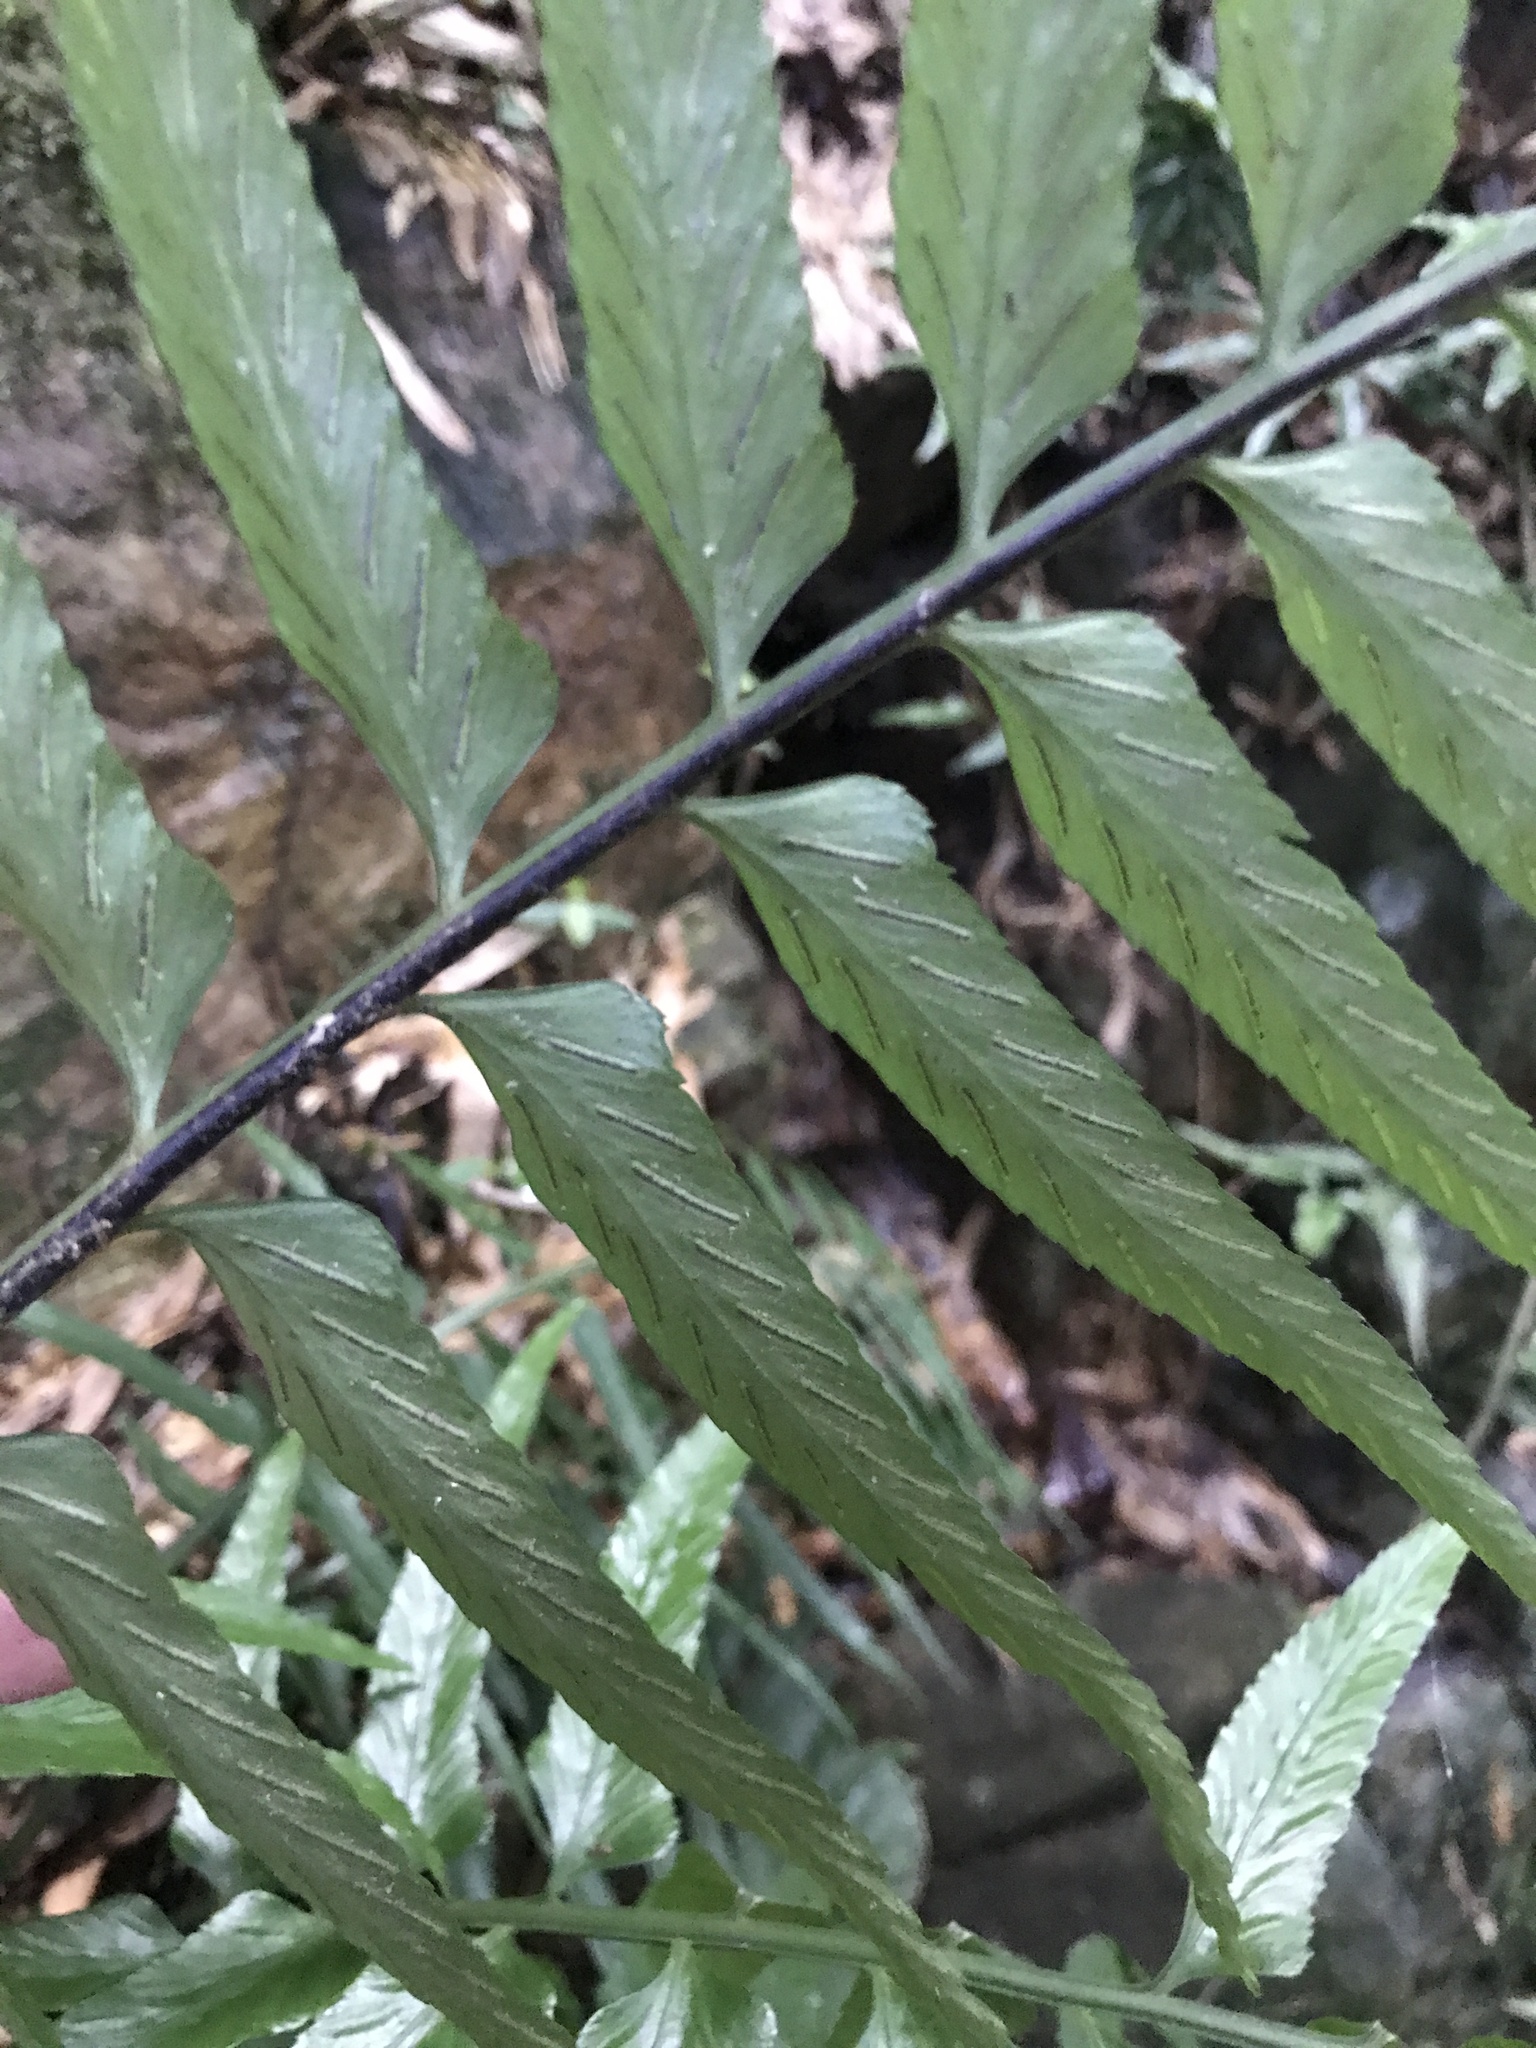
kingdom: Plantae
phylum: Tracheophyta
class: Polypodiopsida
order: Polypodiales
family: Aspleniaceae
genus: Asplenium
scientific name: Asplenium wrightii
